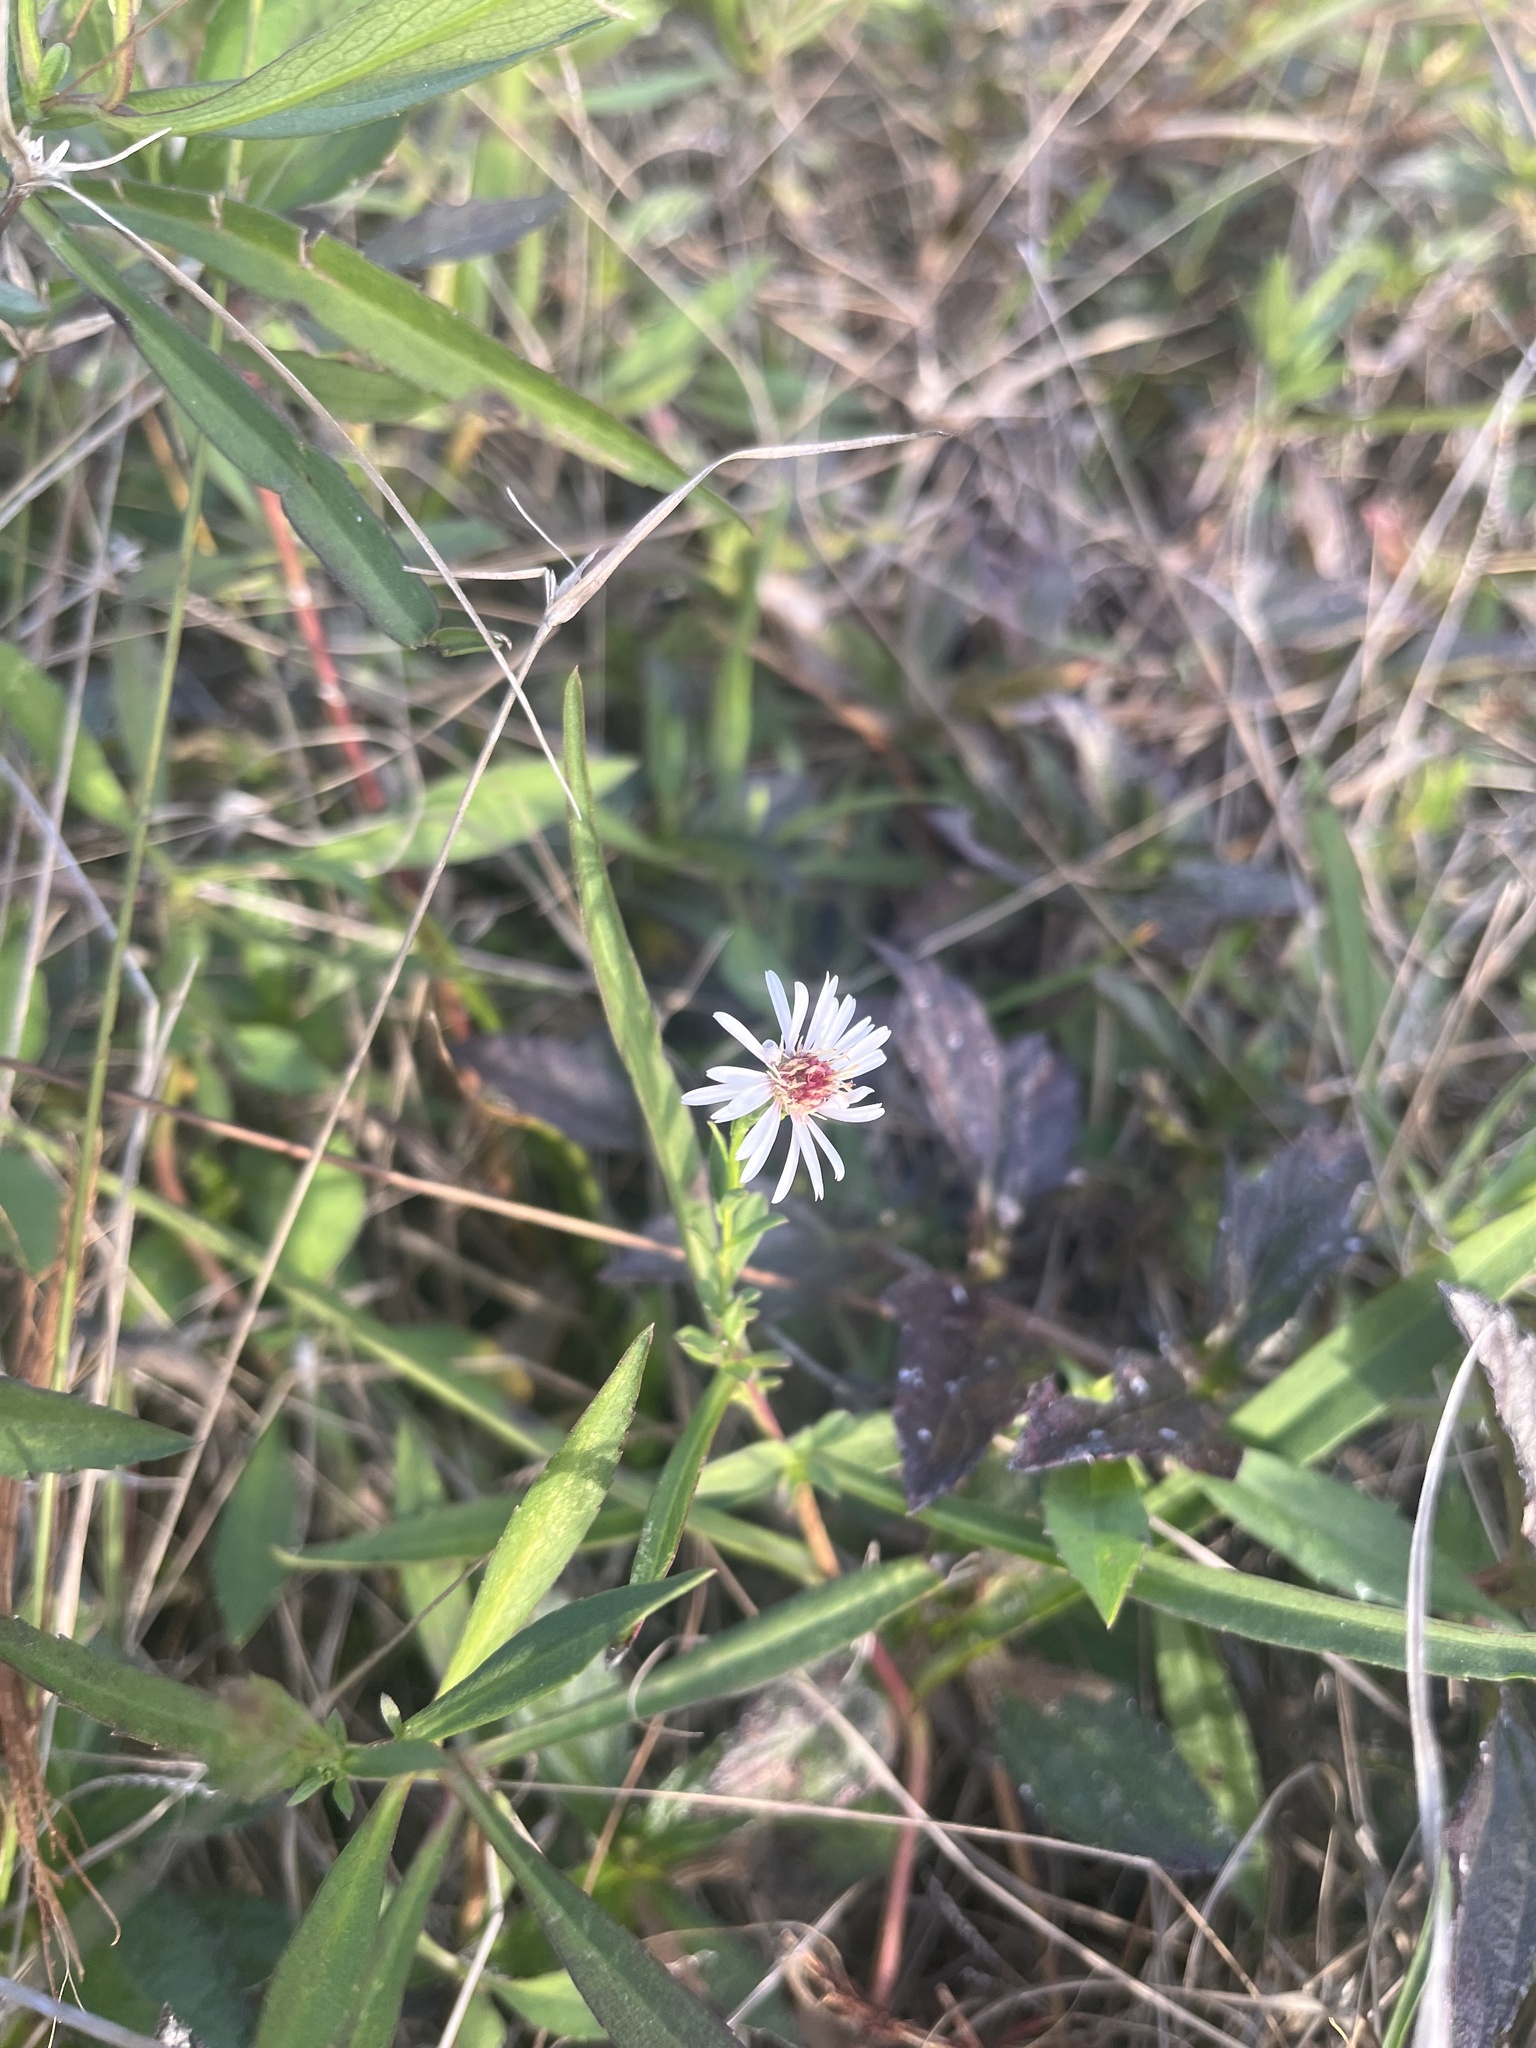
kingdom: Plantae
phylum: Tracheophyta
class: Magnoliopsida
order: Asterales
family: Asteraceae
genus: Symphyotrichum
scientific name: Symphyotrichum simmondsii
